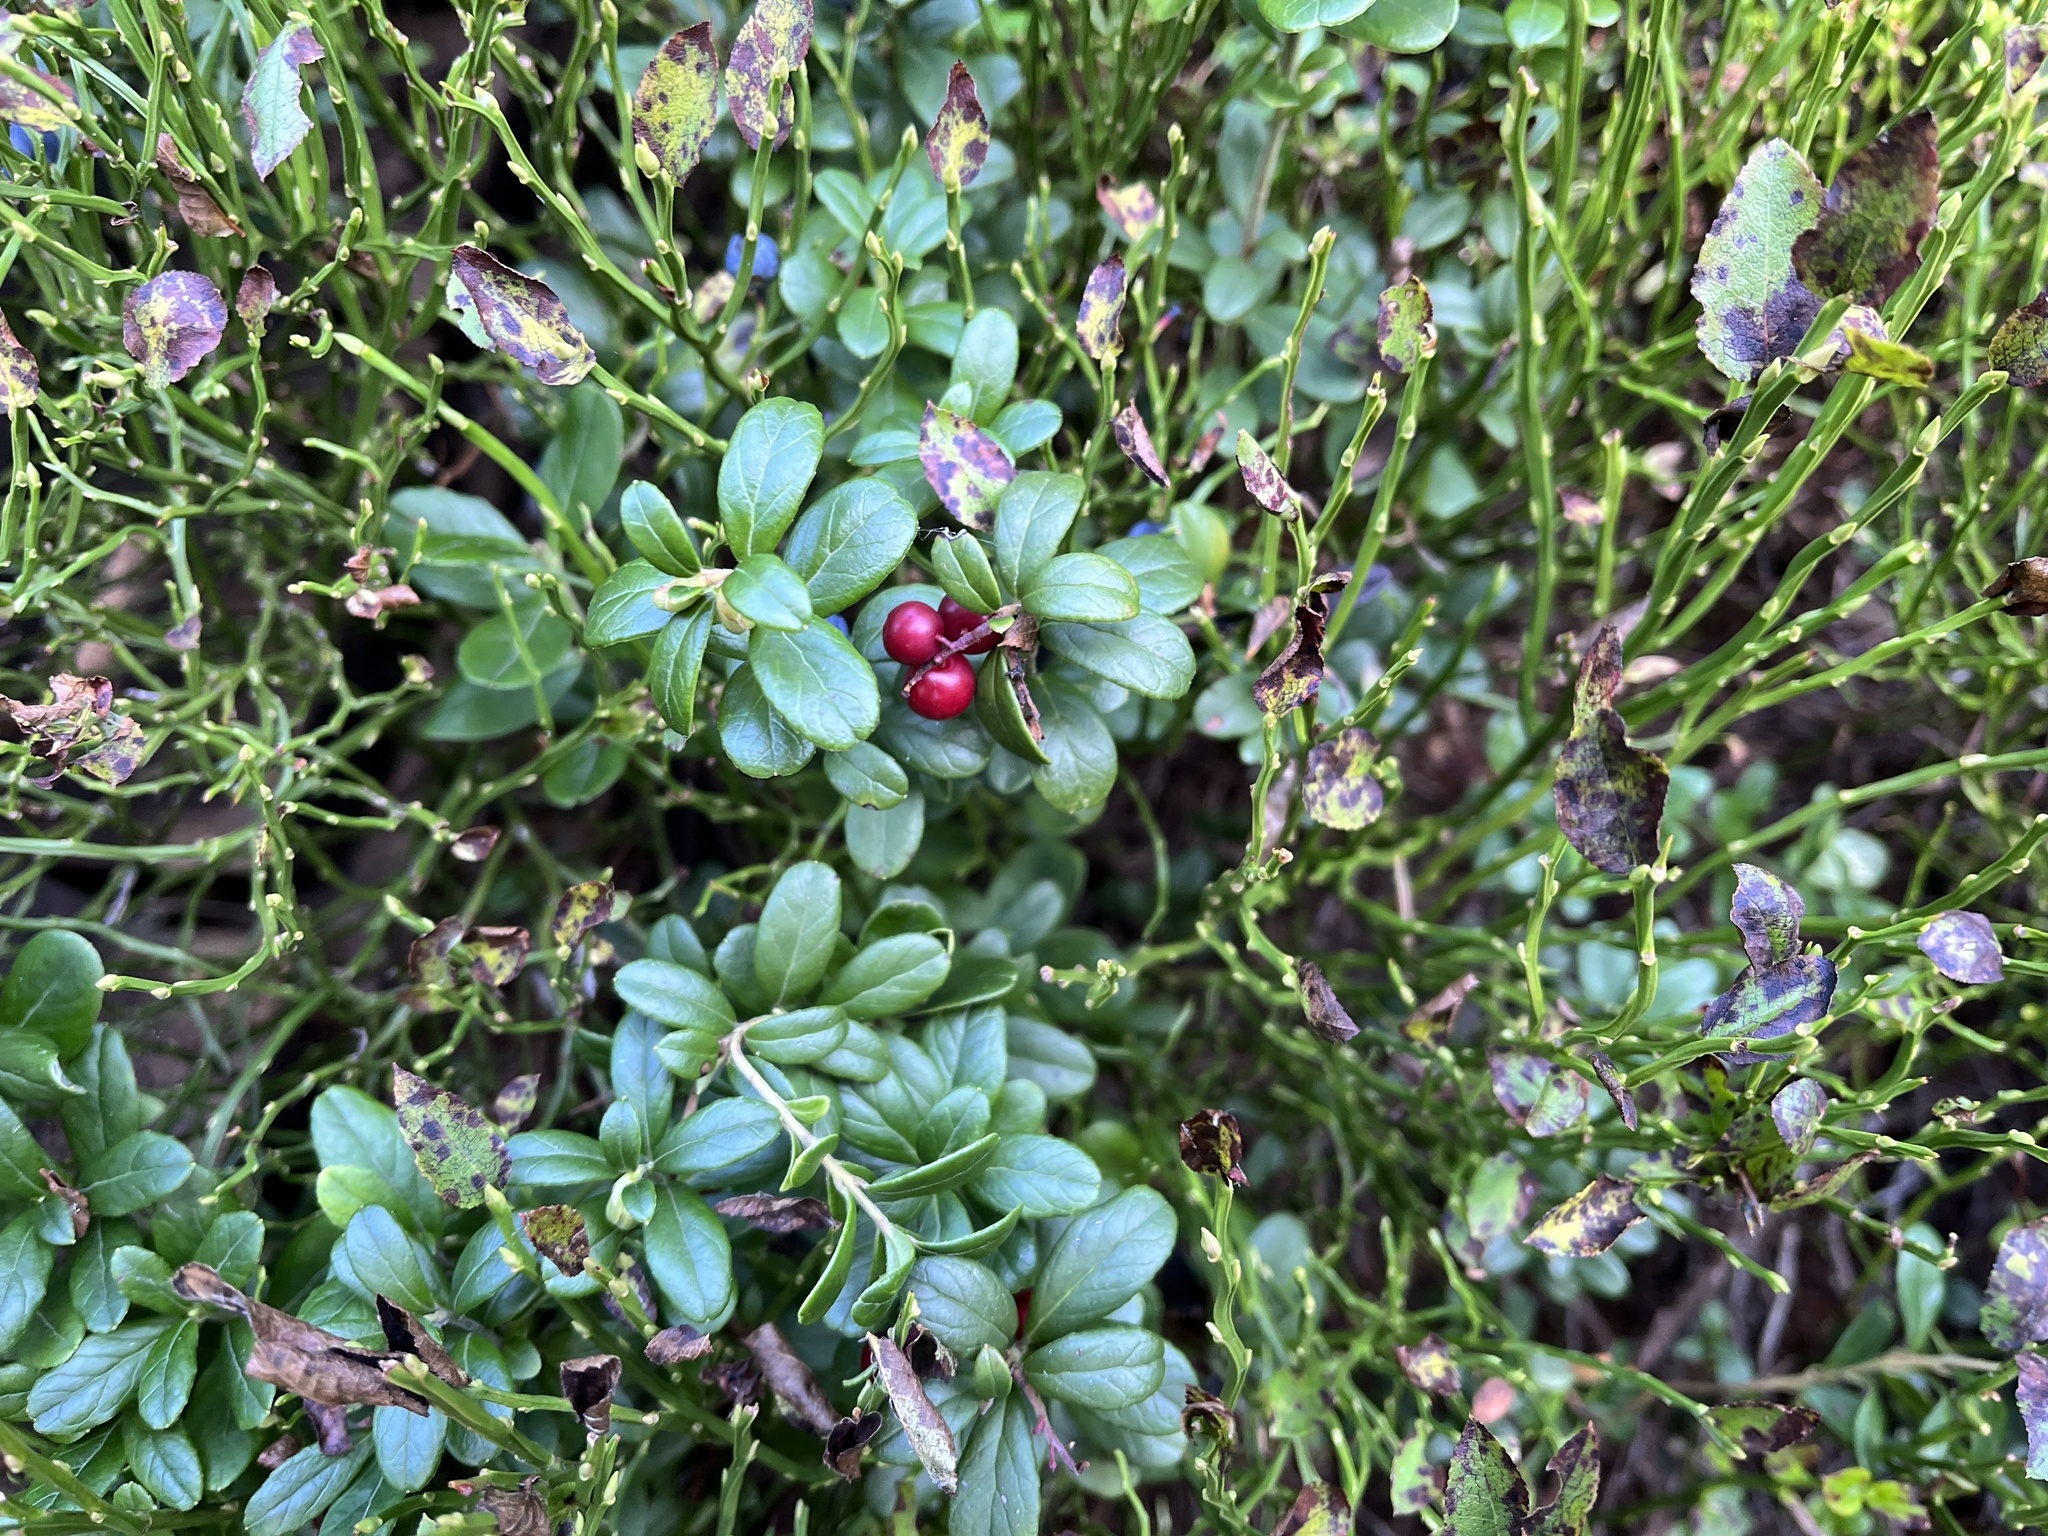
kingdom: Plantae
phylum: Tracheophyta
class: Magnoliopsida
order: Ericales
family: Ericaceae
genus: Vaccinium
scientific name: Vaccinium vitis-idaea
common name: Cowberry
